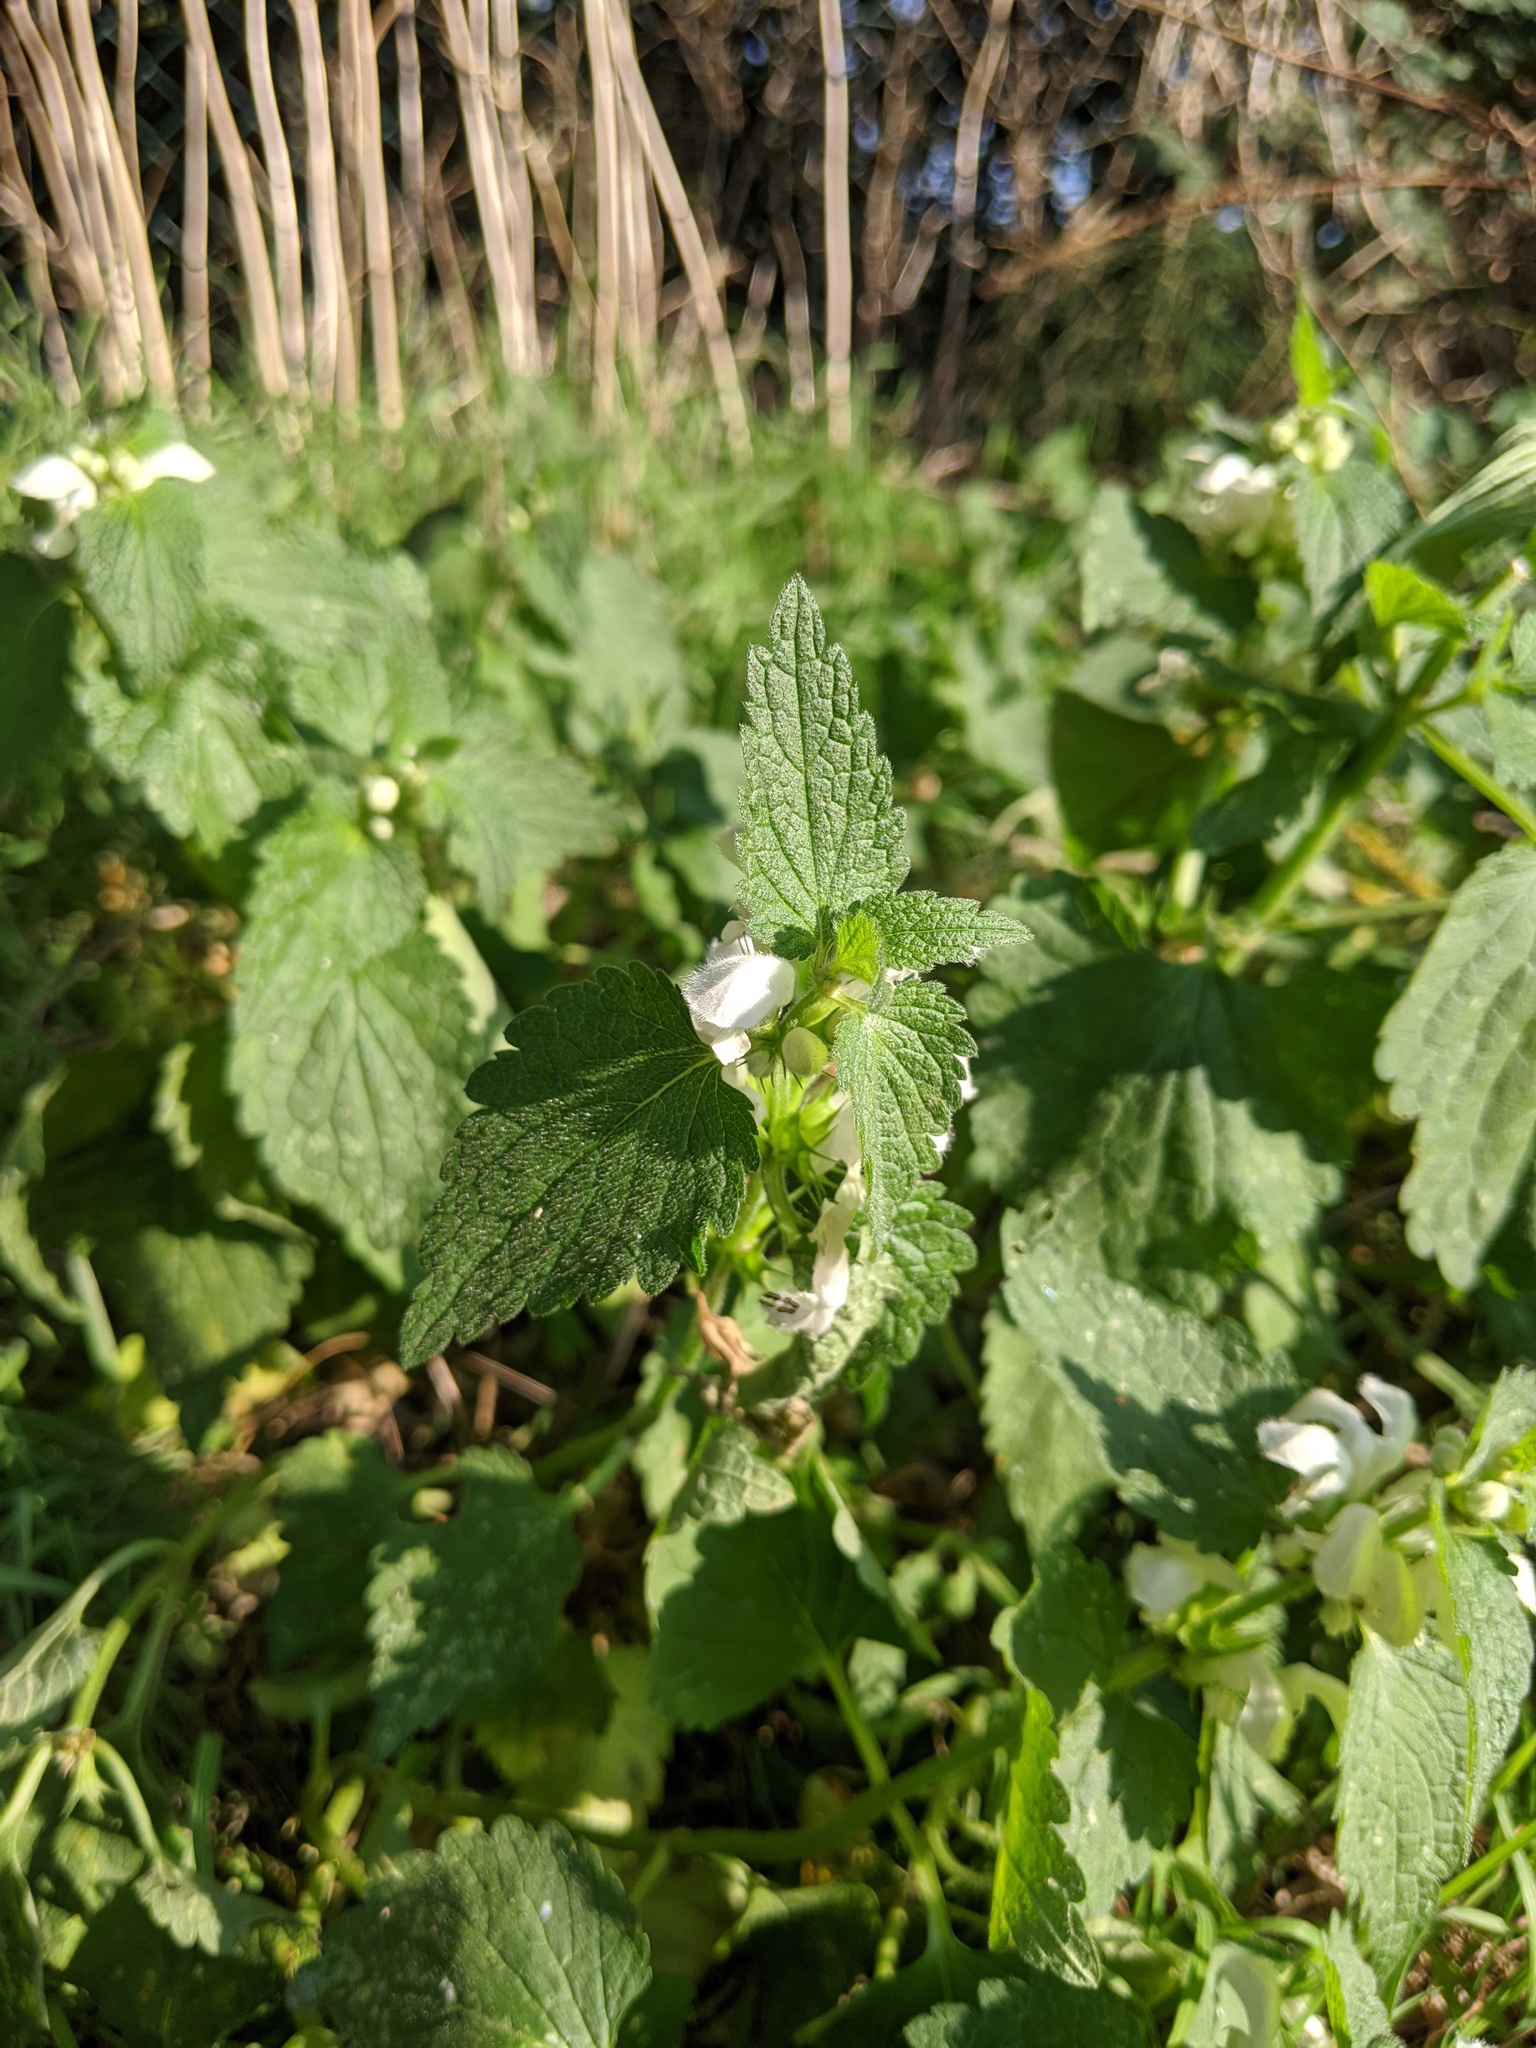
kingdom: Plantae
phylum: Tracheophyta
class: Magnoliopsida
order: Lamiales
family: Lamiaceae
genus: Lamium
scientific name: Lamium album
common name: White dead-nettle
